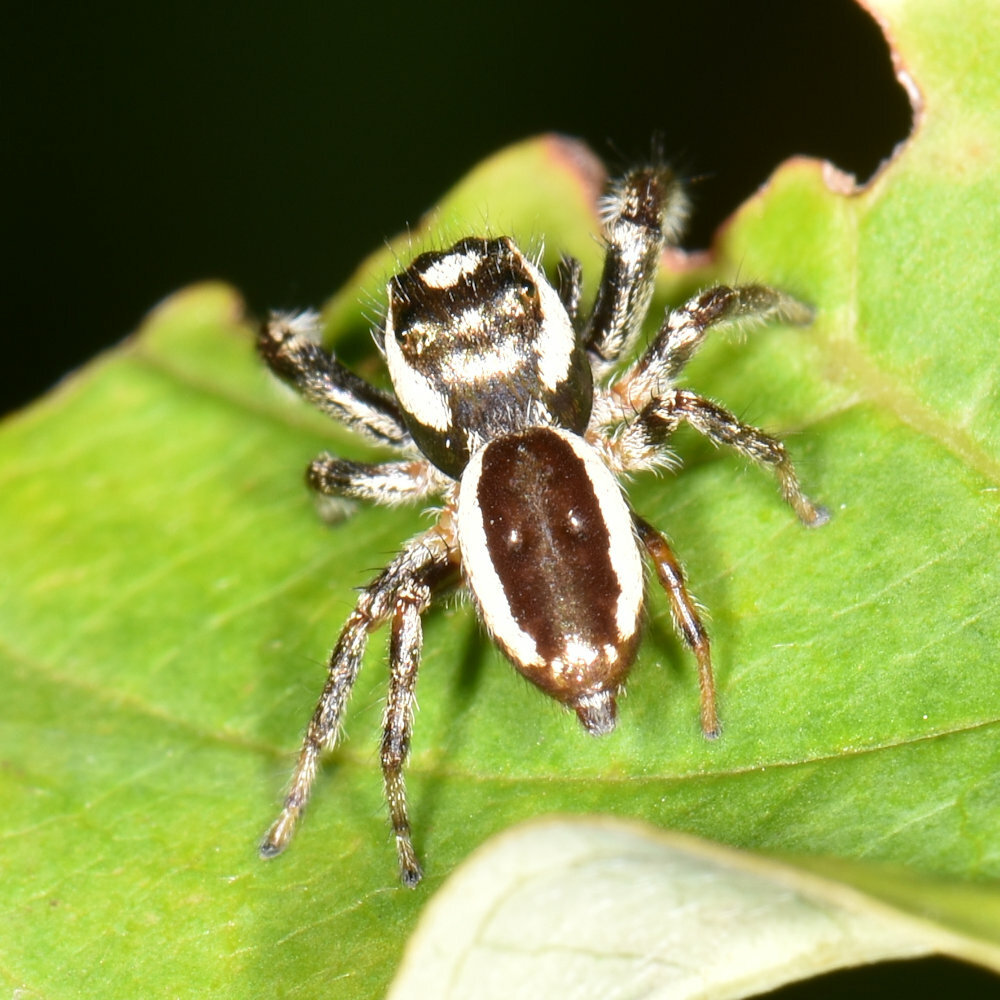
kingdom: Animalia
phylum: Arthropoda
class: Arachnida
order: Araneae
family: Salticidae
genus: Eris
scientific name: Eris militaris
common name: Bronze jumper
